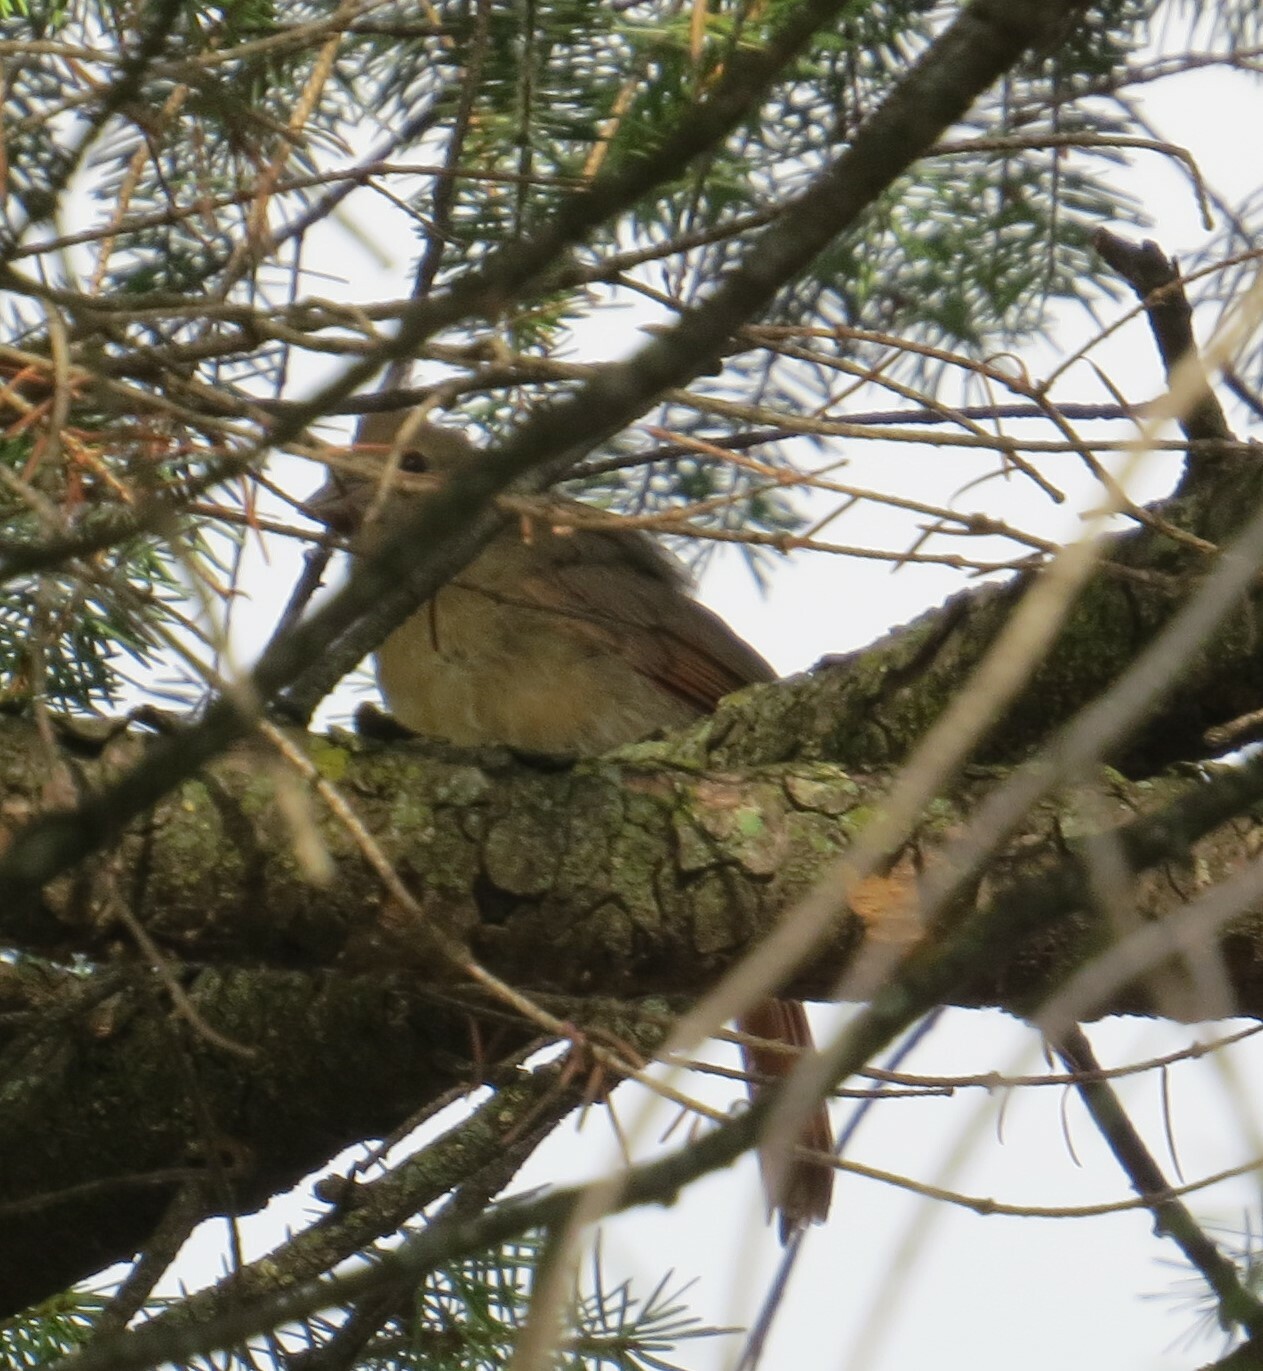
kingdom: Animalia
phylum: Chordata
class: Aves
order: Passeriformes
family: Cardinalidae
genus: Cardinalis
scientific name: Cardinalis cardinalis
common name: Northern cardinal
